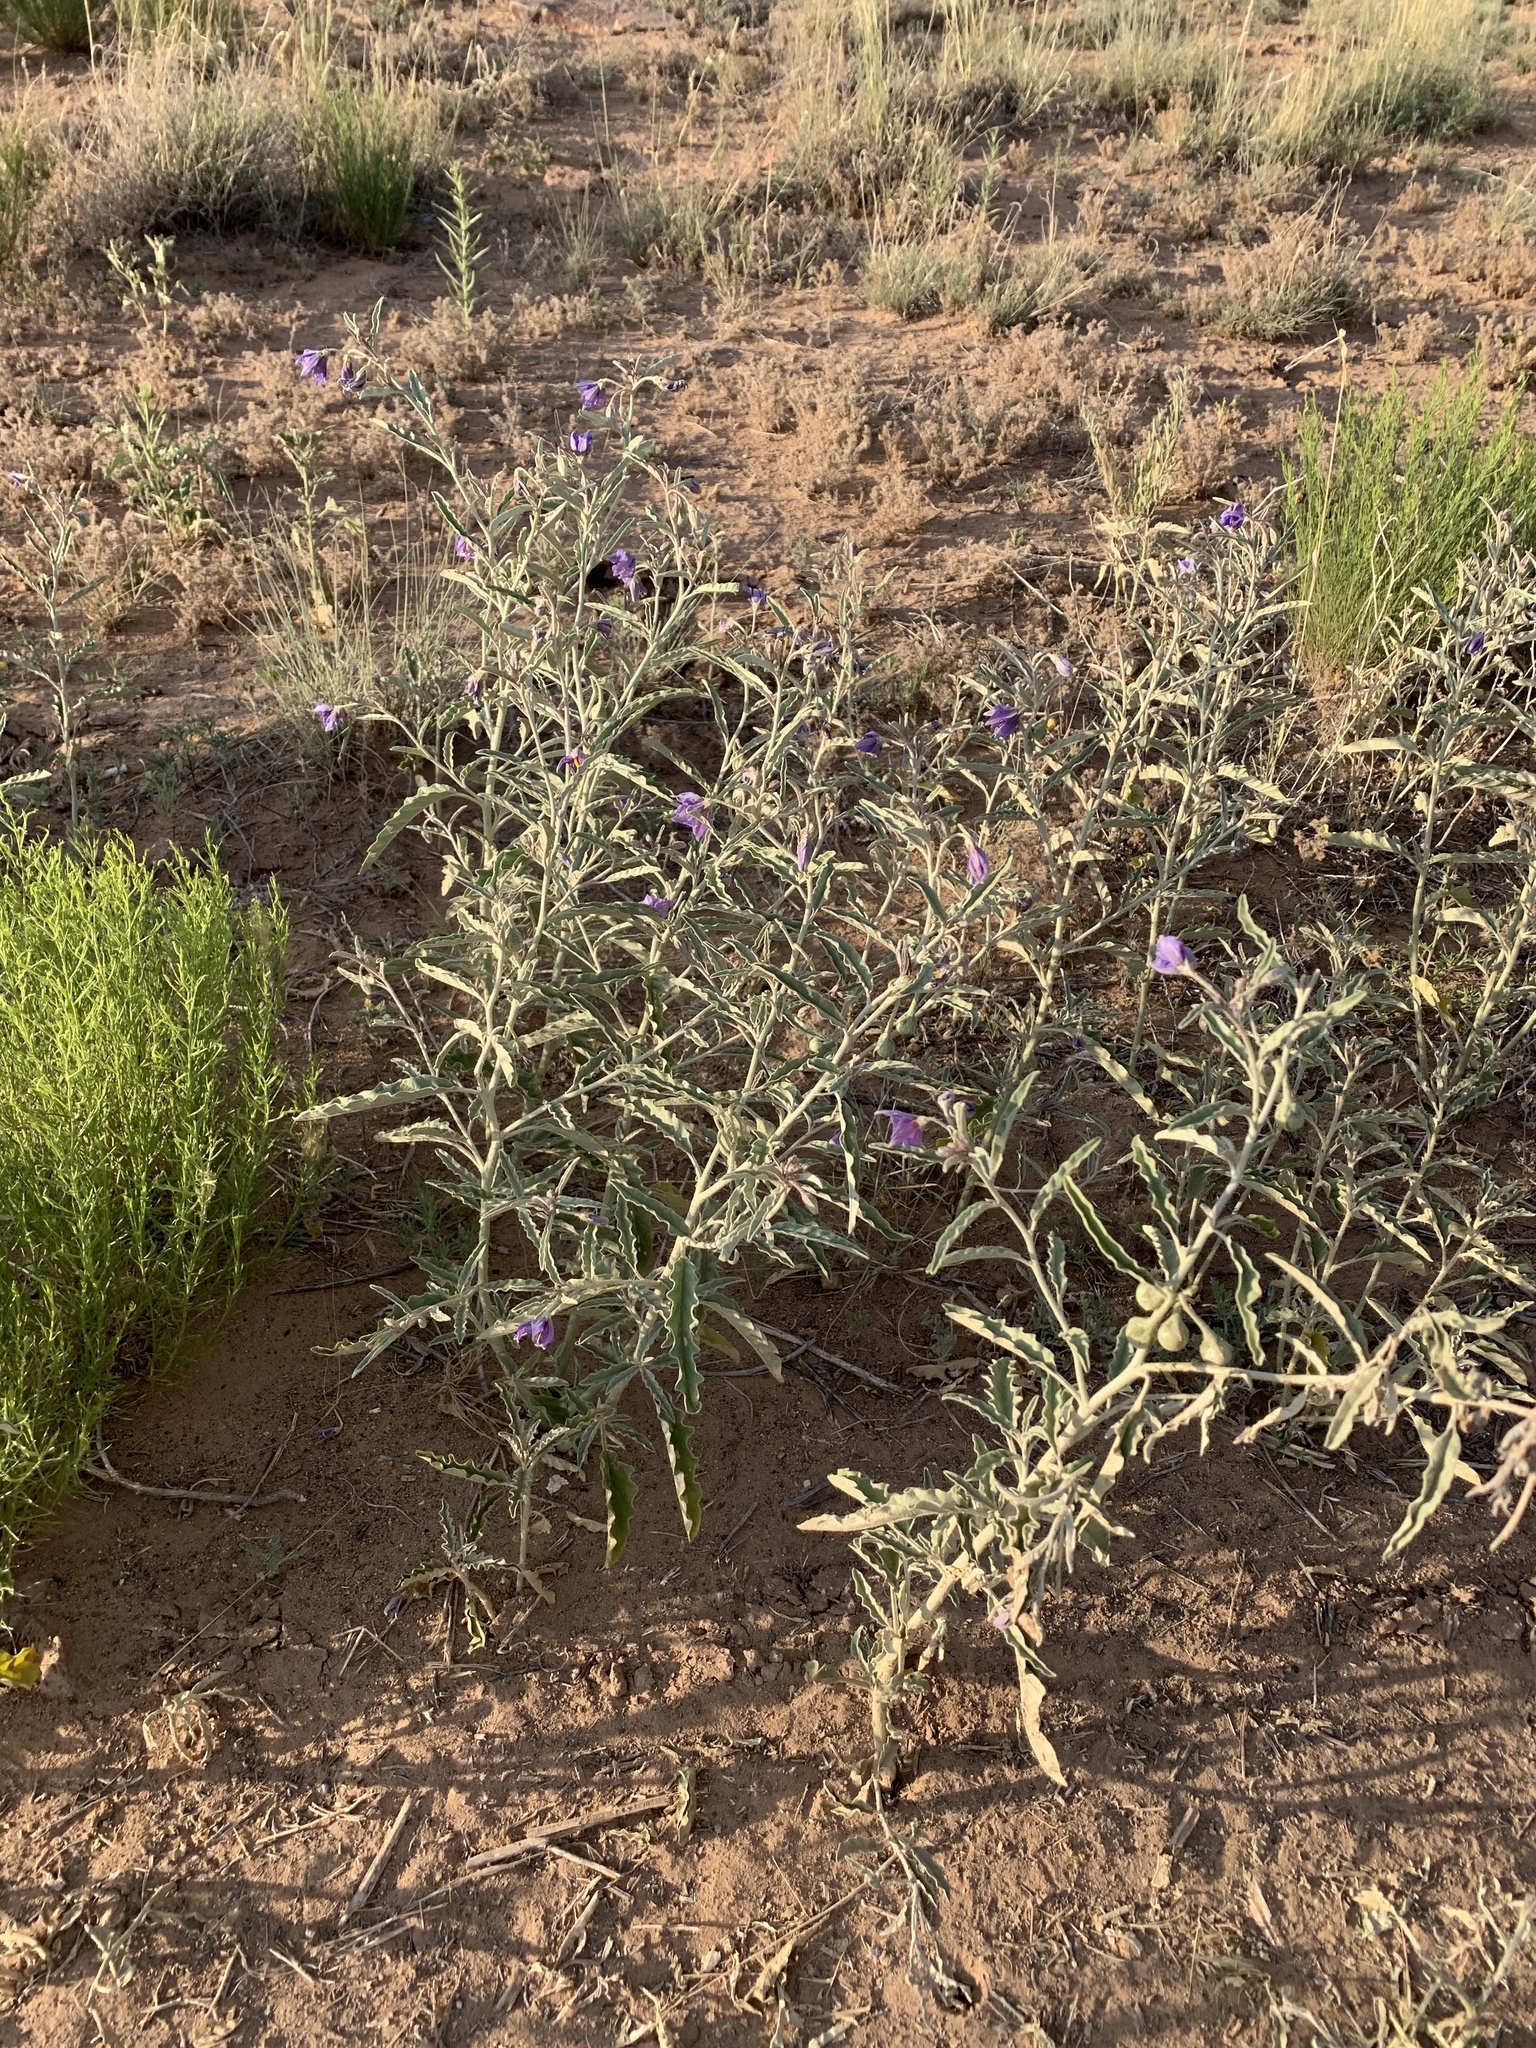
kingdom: Plantae
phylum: Tracheophyta
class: Magnoliopsida
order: Solanales
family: Solanaceae
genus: Solanum
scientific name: Solanum elaeagnifolium
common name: Silverleaf nightshade
